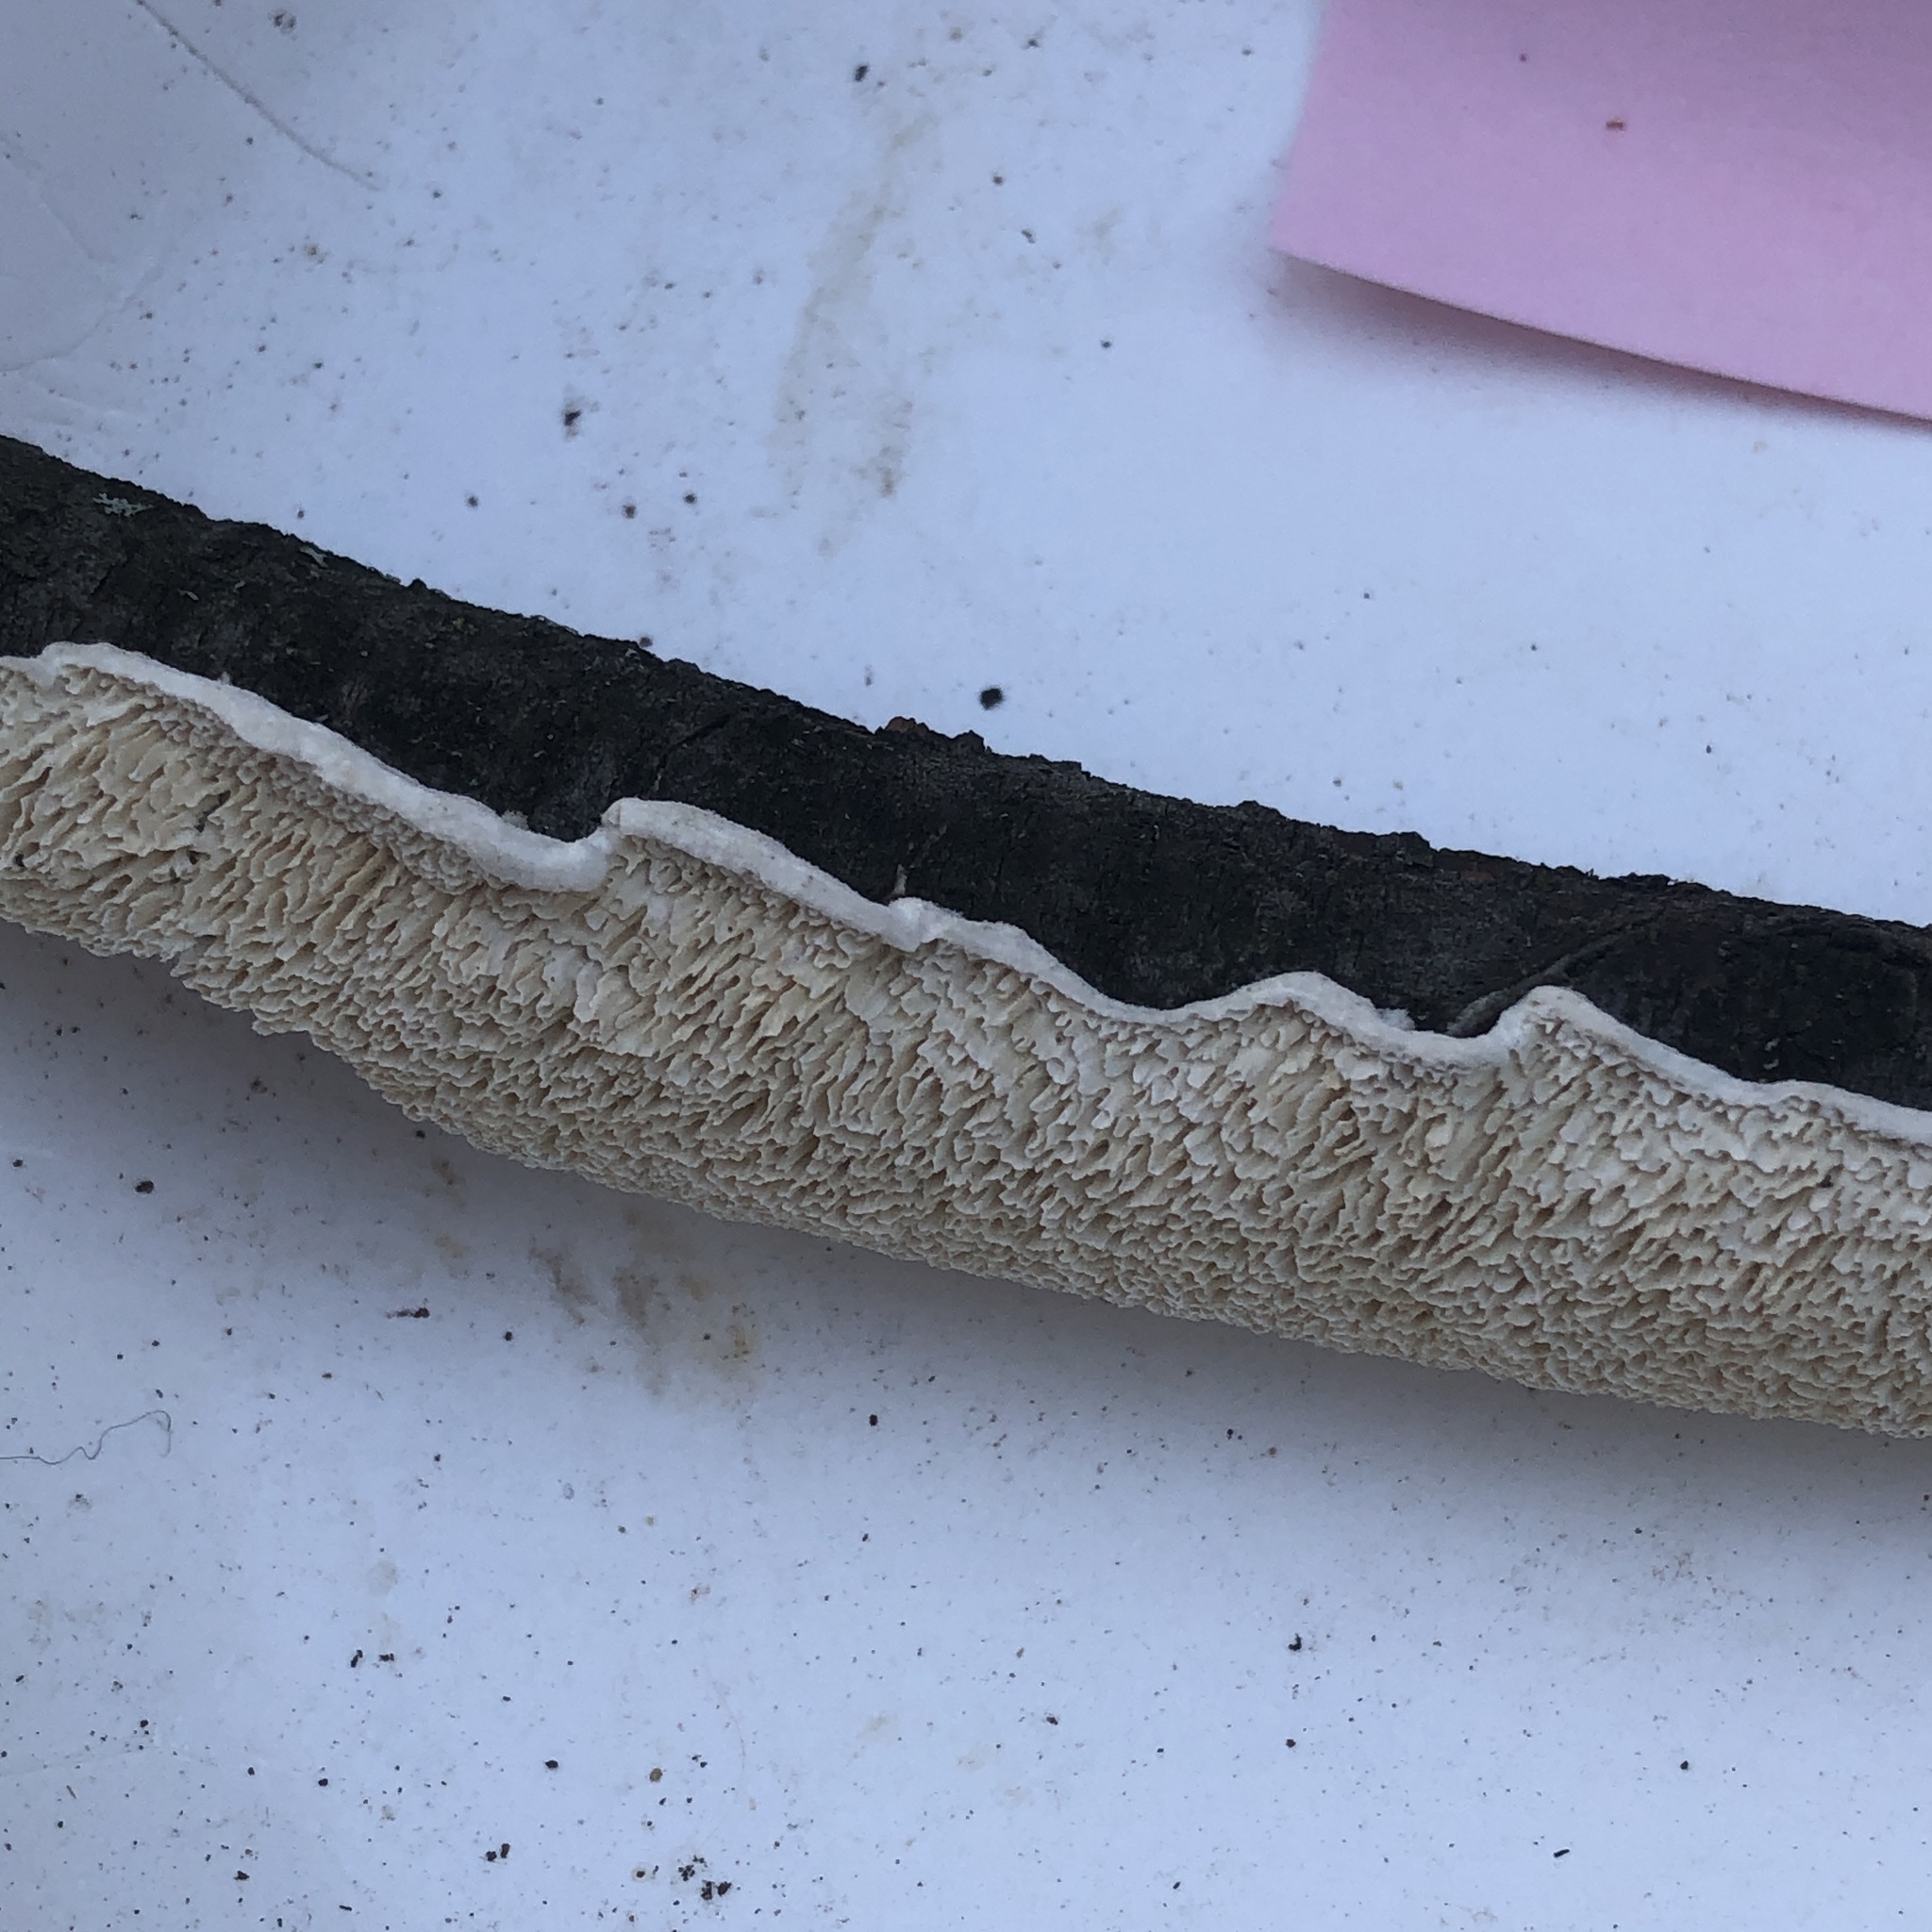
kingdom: Fungi
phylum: Basidiomycota
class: Agaricomycetes
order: Polyporales
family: Irpicaceae
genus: Irpex
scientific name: Irpex lacteus
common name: Milk-white toothed polypore
